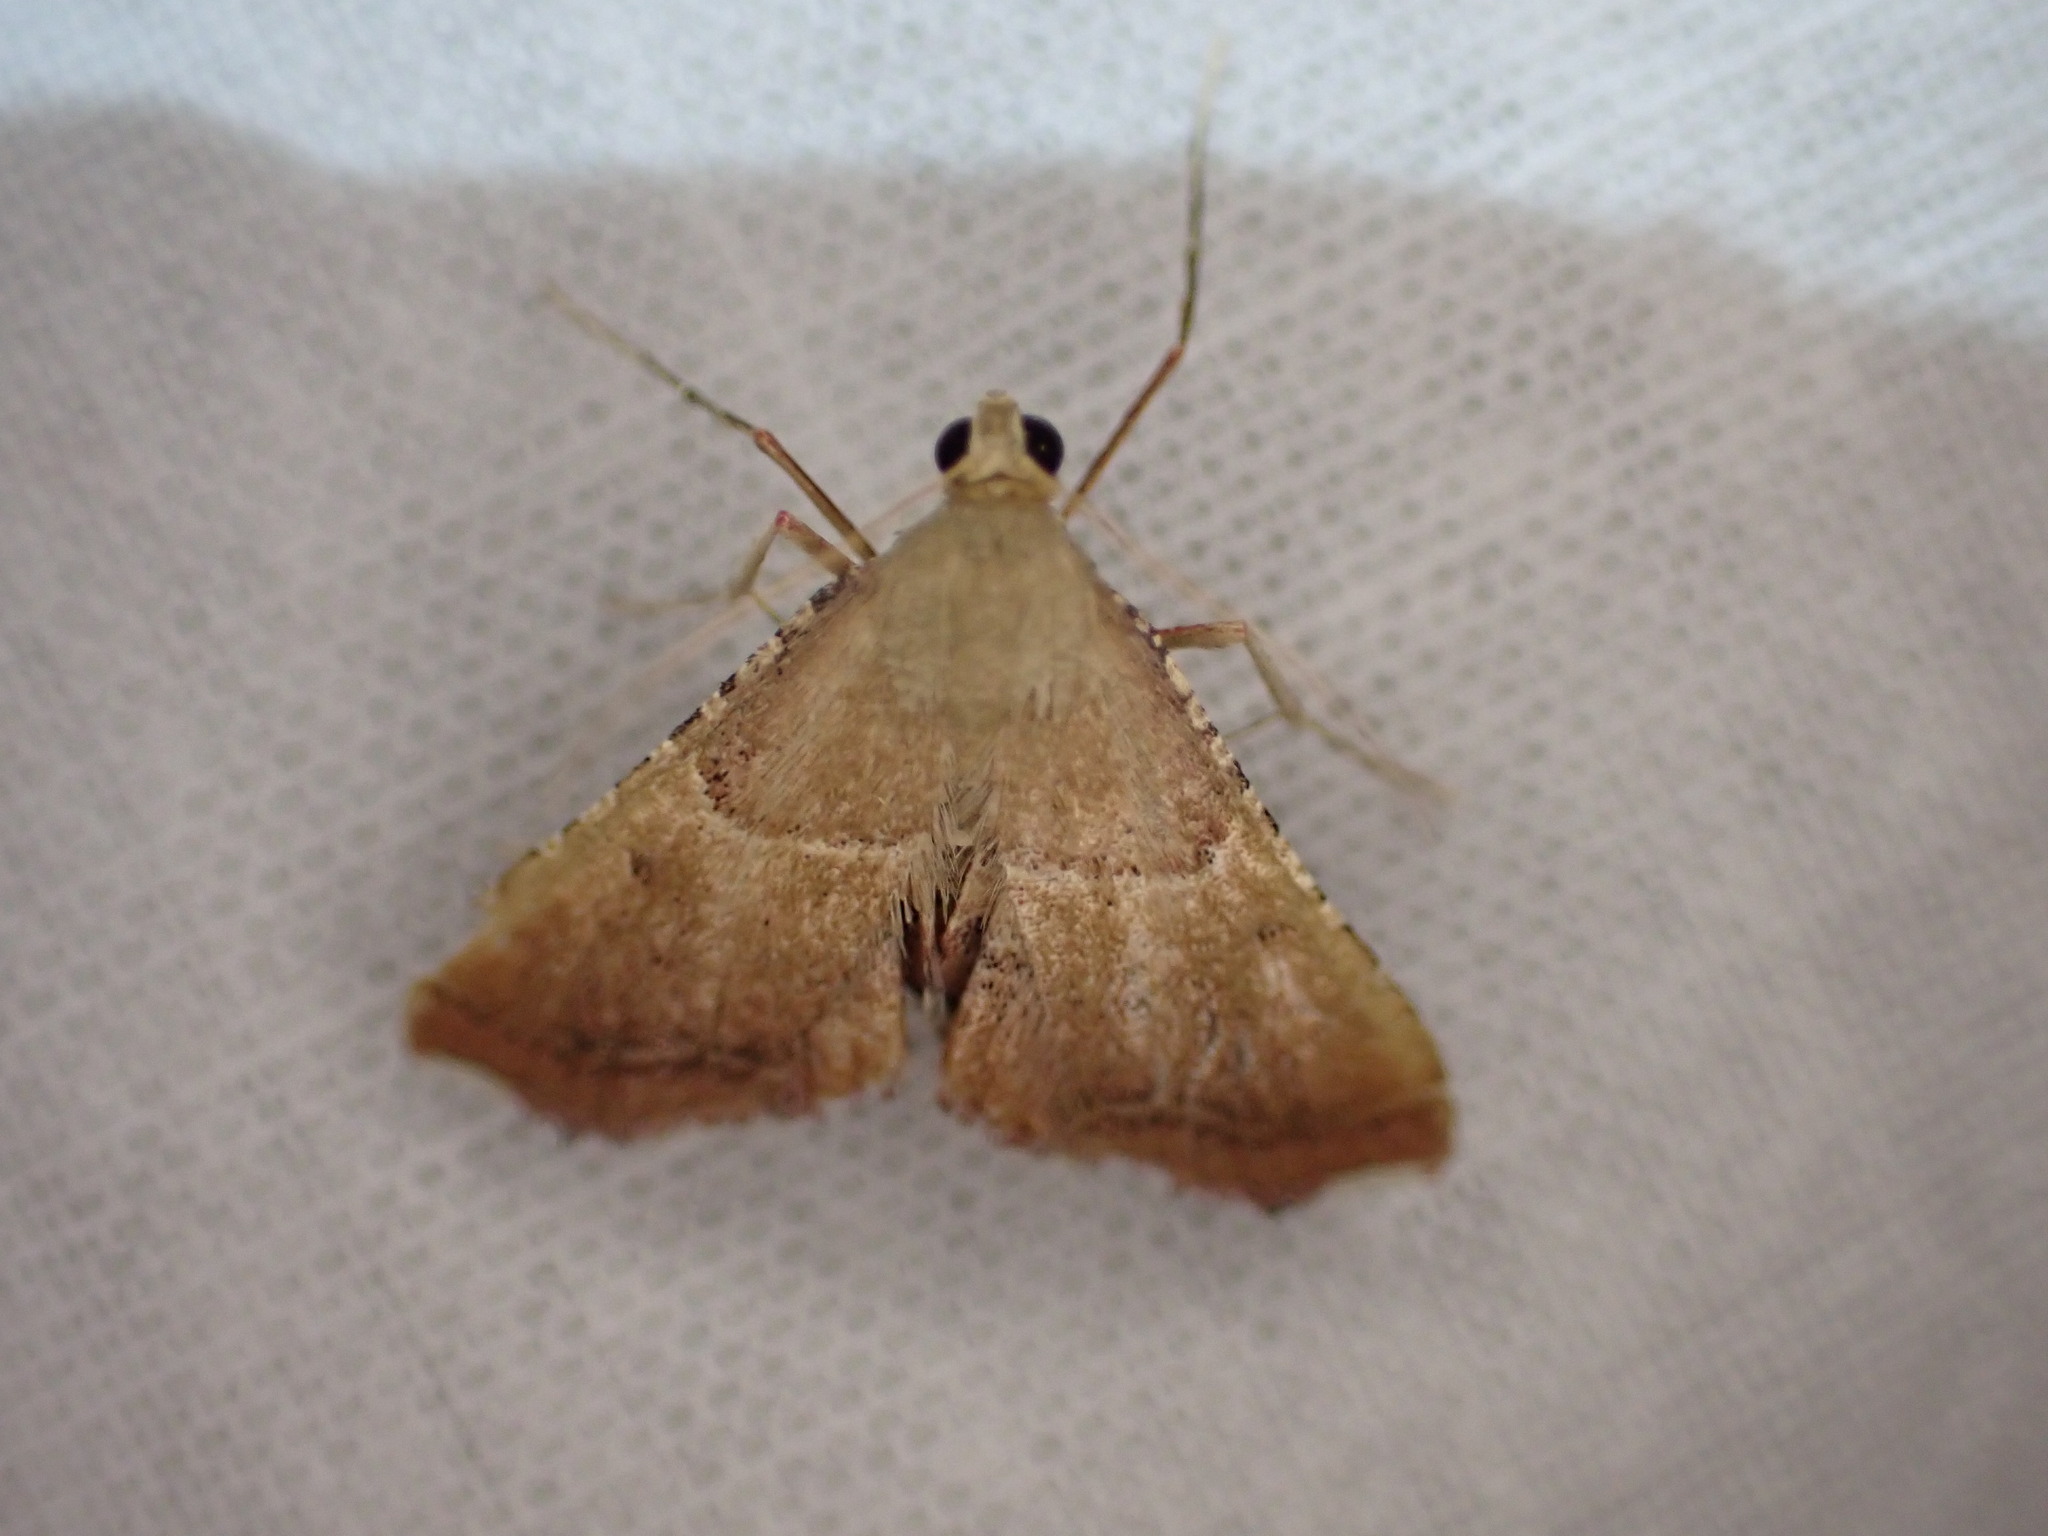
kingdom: Animalia
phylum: Arthropoda
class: Insecta
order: Lepidoptera
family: Pyralidae
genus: Endotricha
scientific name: Endotricha flammealis
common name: Rosy tabby
